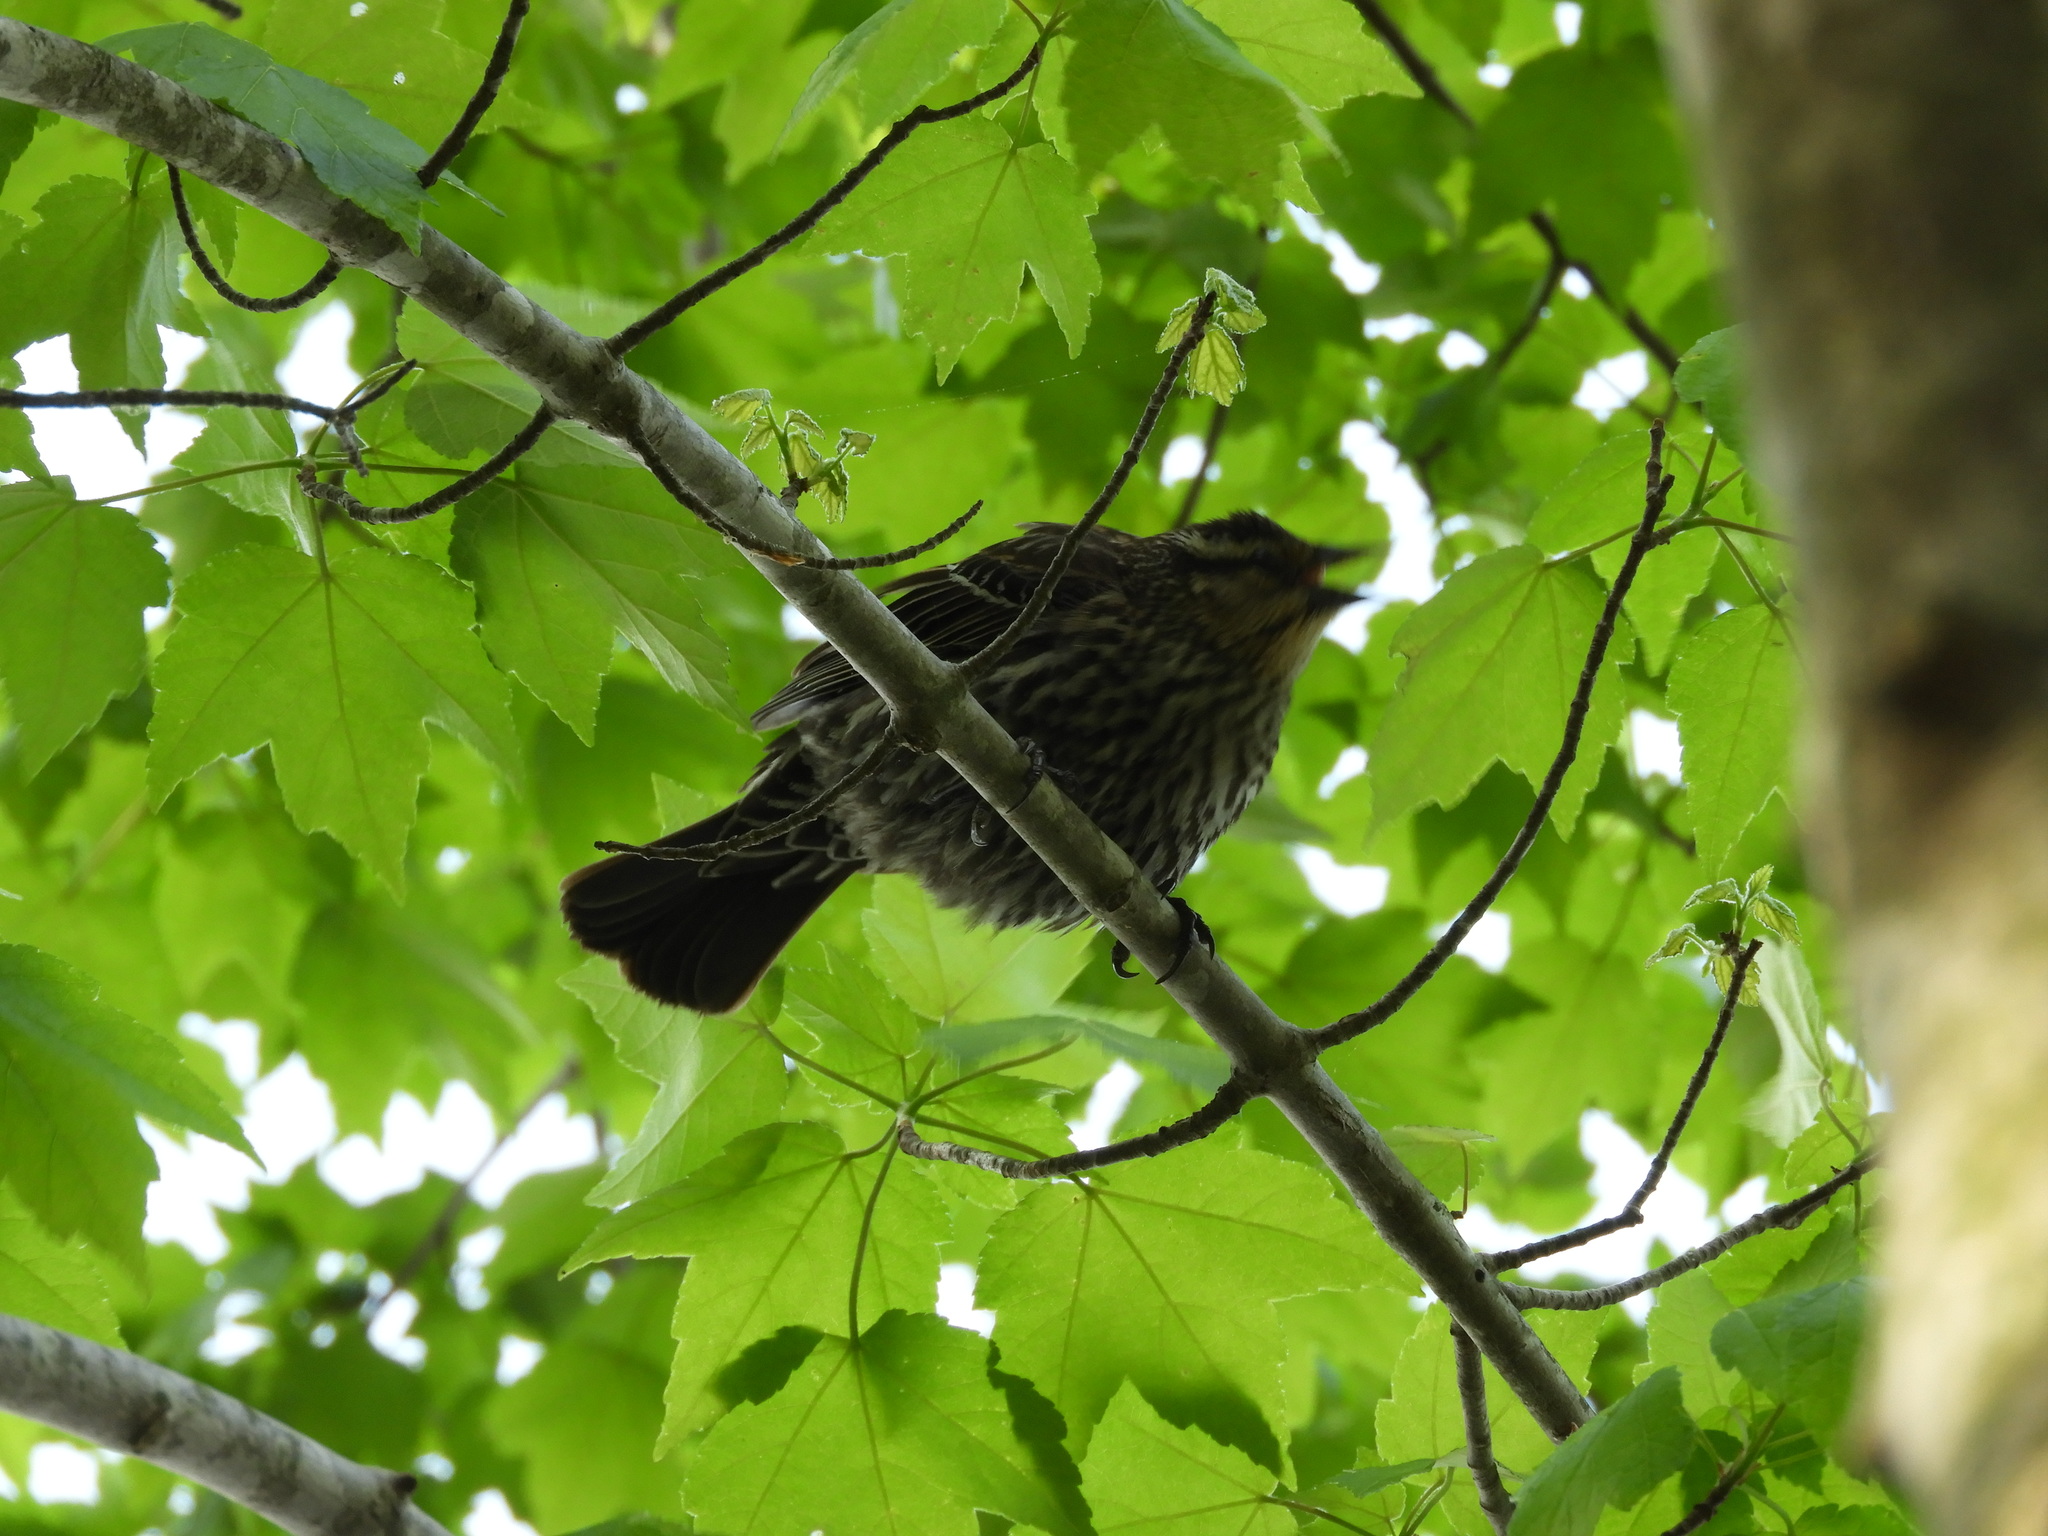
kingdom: Animalia
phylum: Chordata
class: Aves
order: Passeriformes
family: Icteridae
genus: Agelaius
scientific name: Agelaius phoeniceus
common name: Red-winged blackbird
